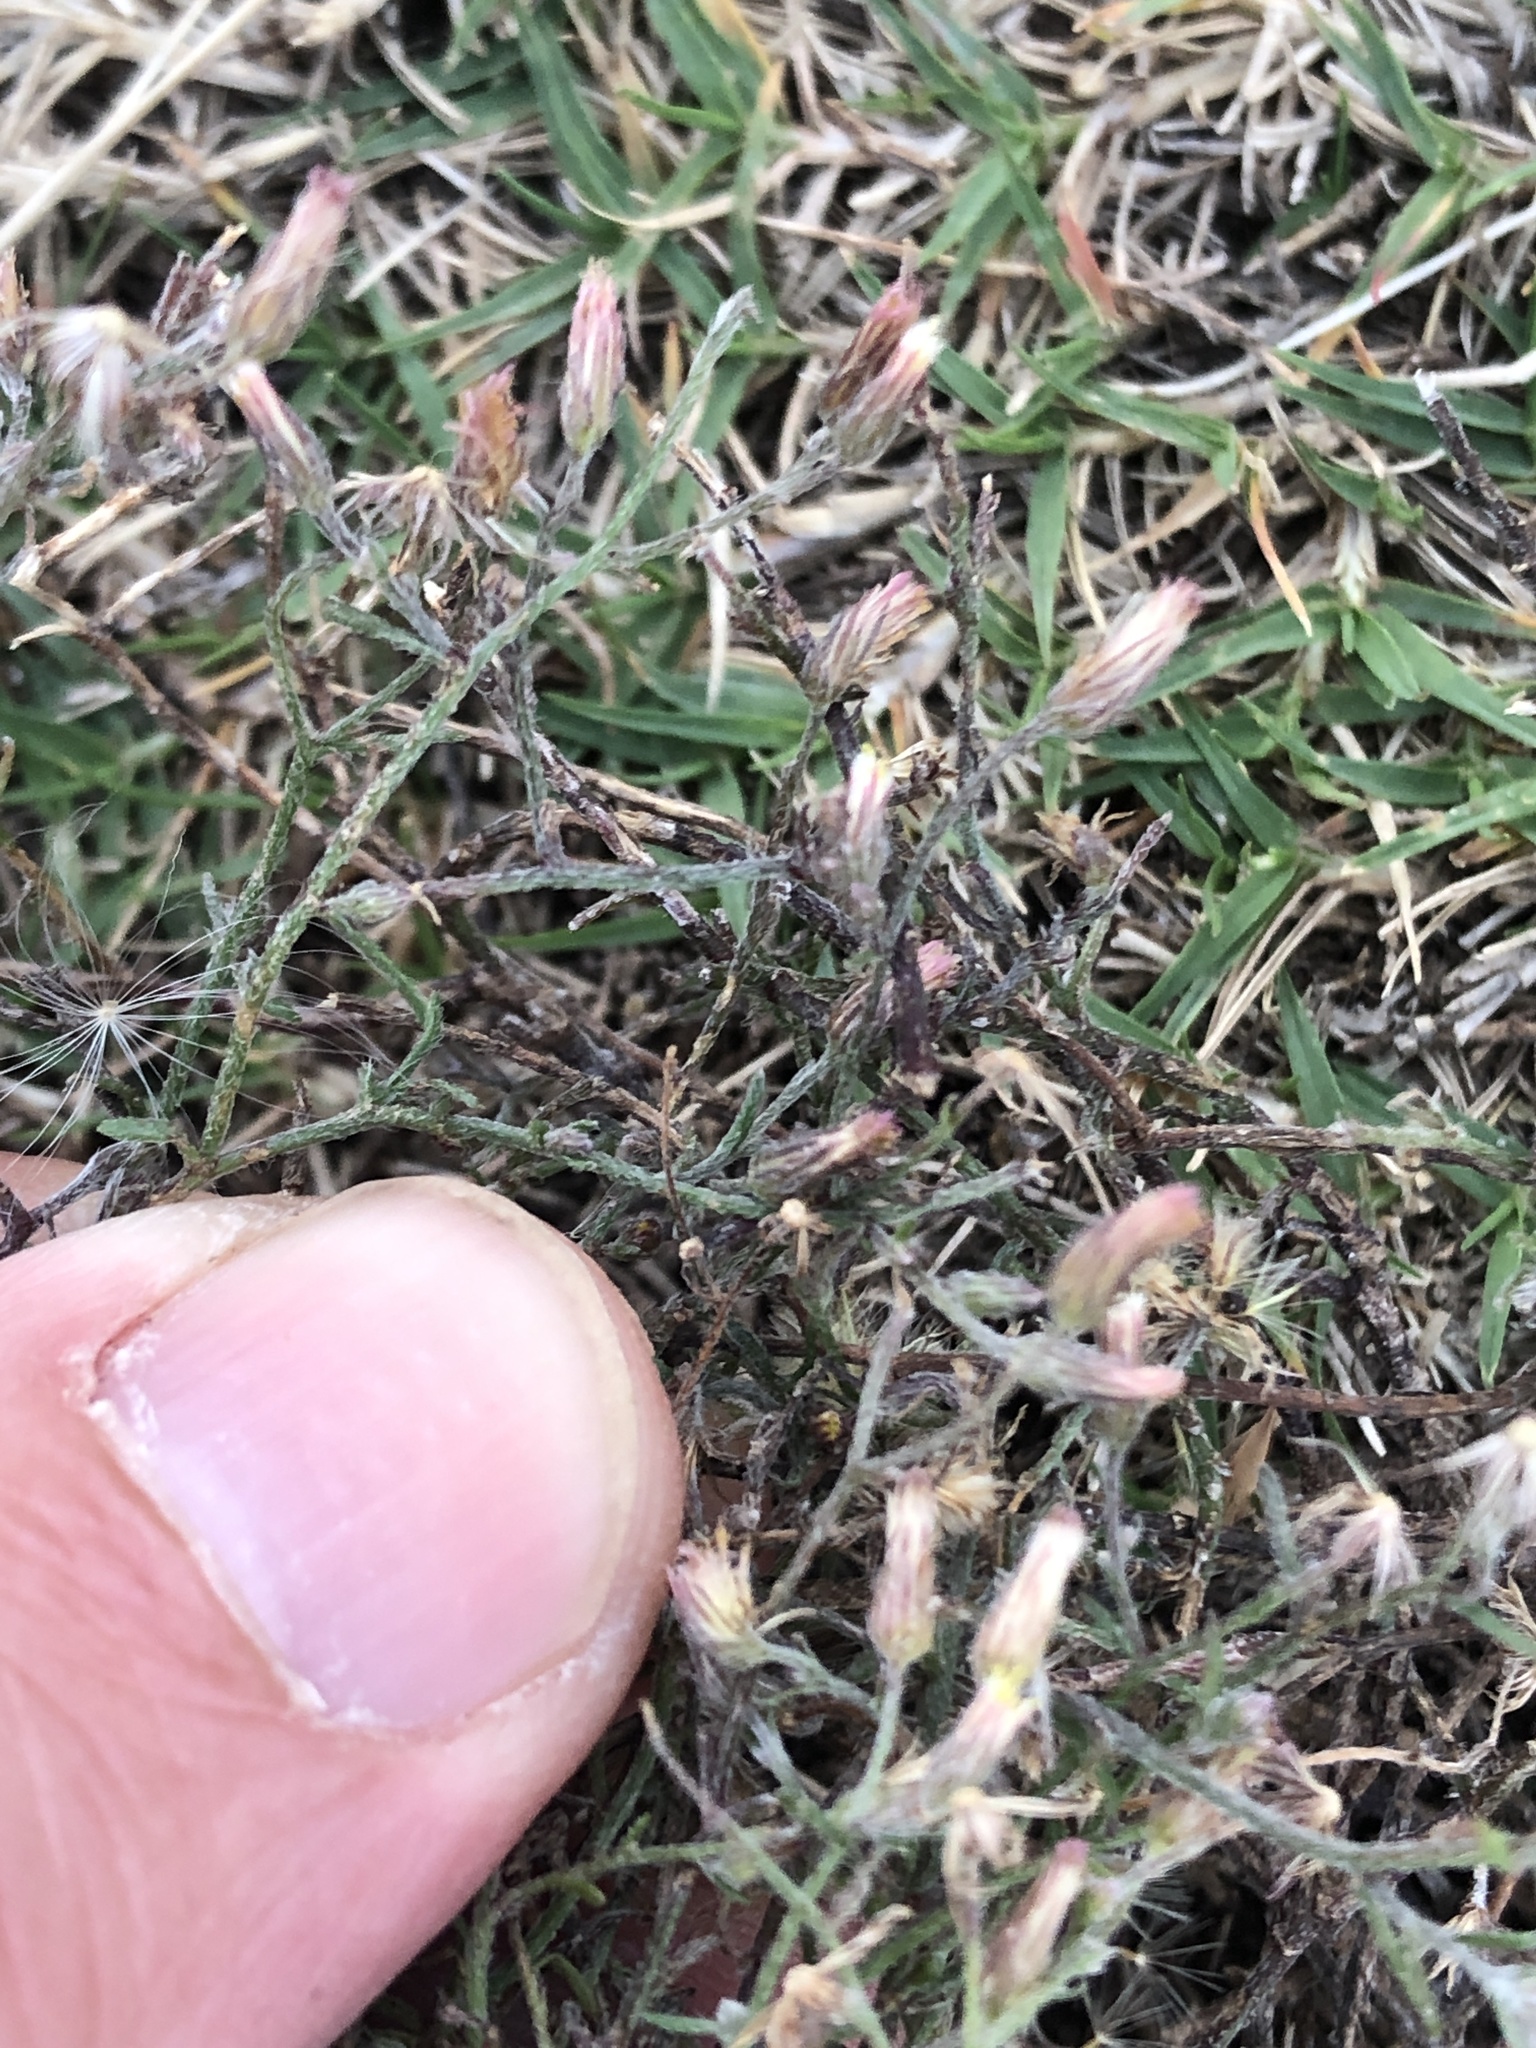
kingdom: Plantae
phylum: Tracheophyta
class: Magnoliopsida
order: Asterales
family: Asteraceae
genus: Erigeron
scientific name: Erigeron divaricatus
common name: Dwarf conyza
